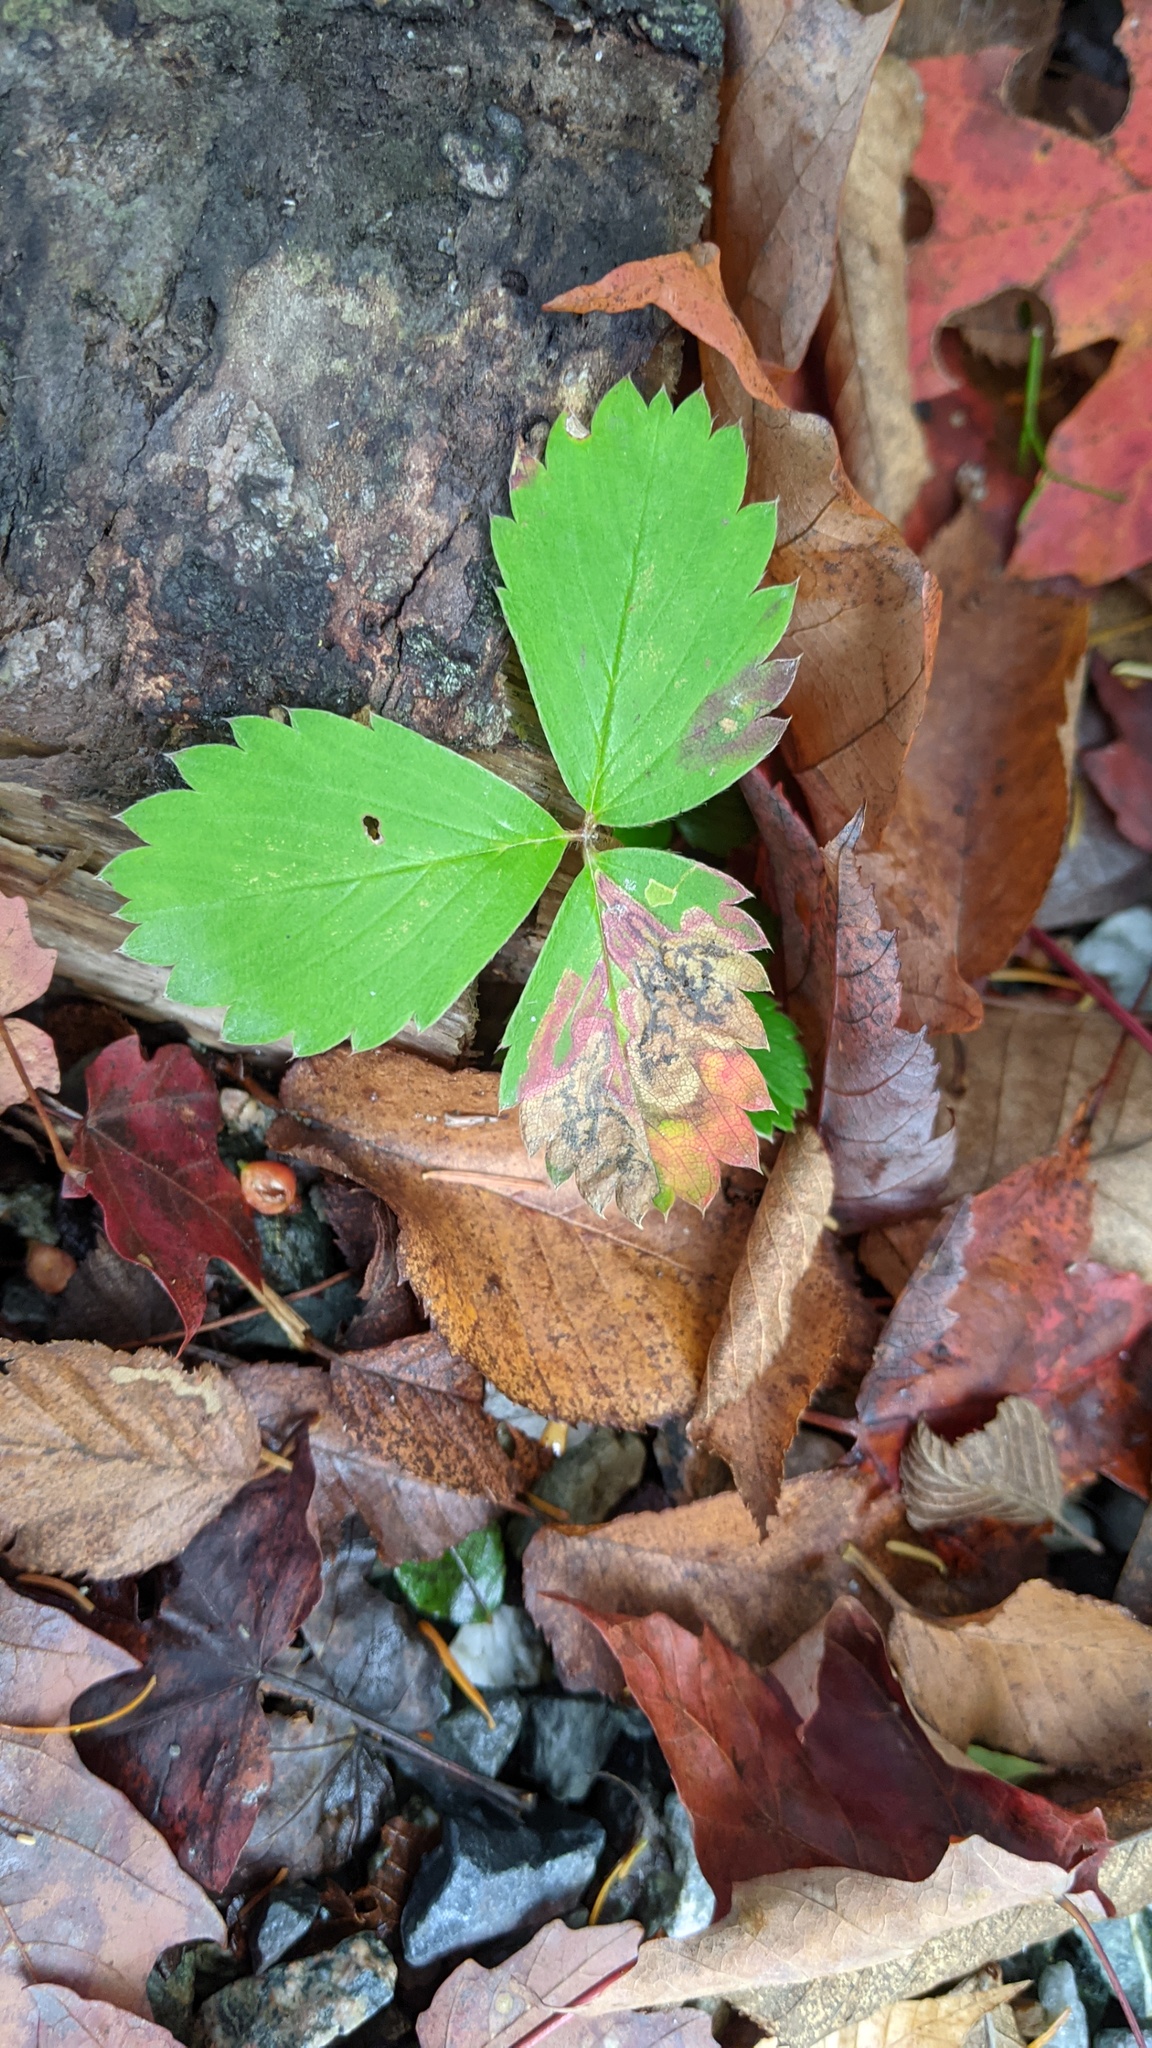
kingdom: Plantae
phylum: Tracheophyta
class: Magnoliopsida
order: Rosales
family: Rosaceae
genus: Fragaria
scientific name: Fragaria virginiana
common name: Thickleaved wild strawberry
